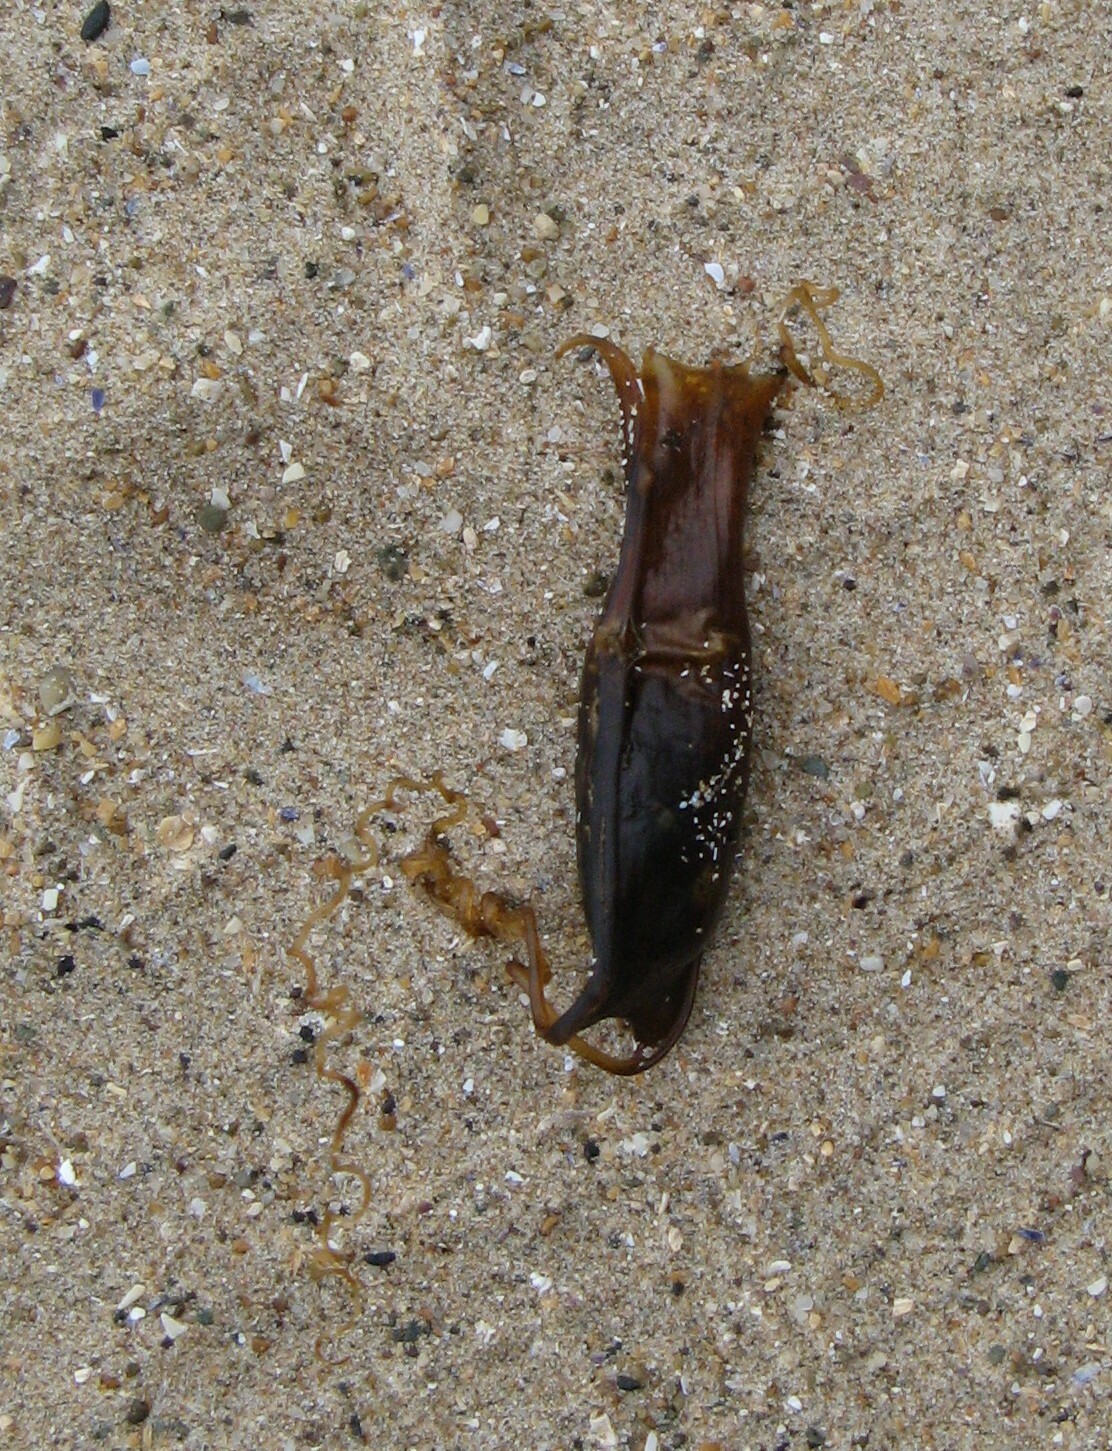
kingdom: Animalia
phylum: Chordata
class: Elasmobranchii
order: Carcharhiniformes
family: Scyliorhinidae
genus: Scyliorhinus
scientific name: Scyliorhinus canicula
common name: Lesser spotted dogfish
